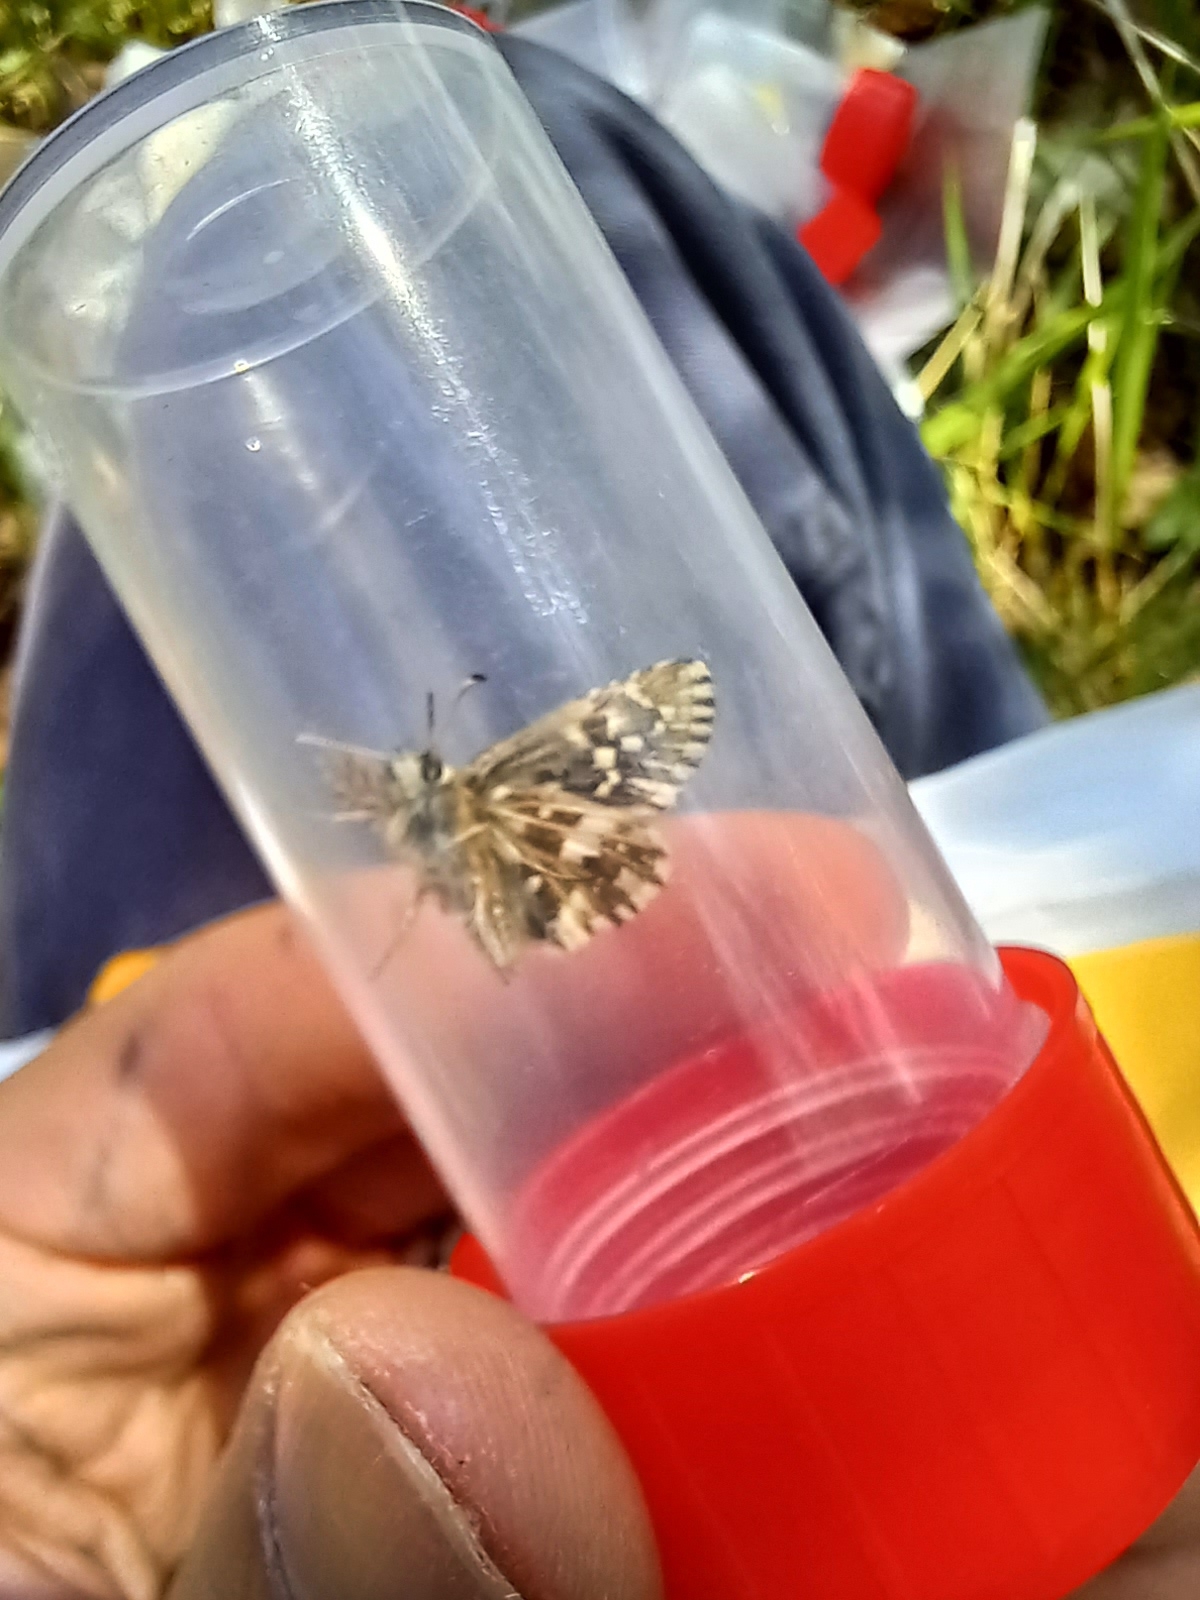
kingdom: Animalia
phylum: Arthropoda
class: Insecta
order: Lepidoptera
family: Hesperiidae
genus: Pyrgus
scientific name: Pyrgus malvae
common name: Grizzled skipper
